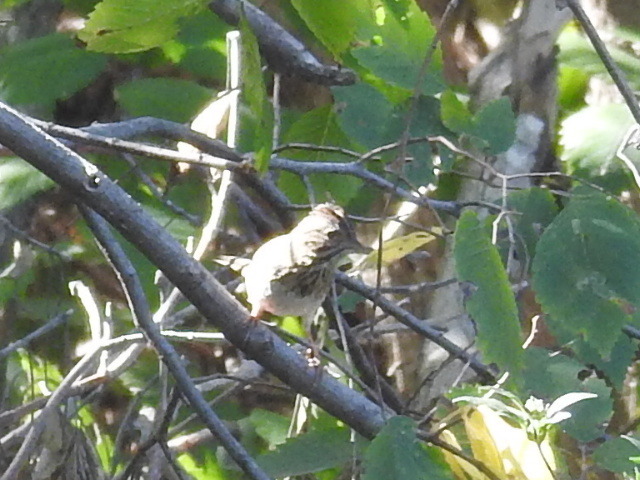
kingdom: Animalia
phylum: Chordata
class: Aves
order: Passeriformes
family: Passerellidae
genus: Melospiza
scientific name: Melospiza lincolnii
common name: Lincoln's sparrow
